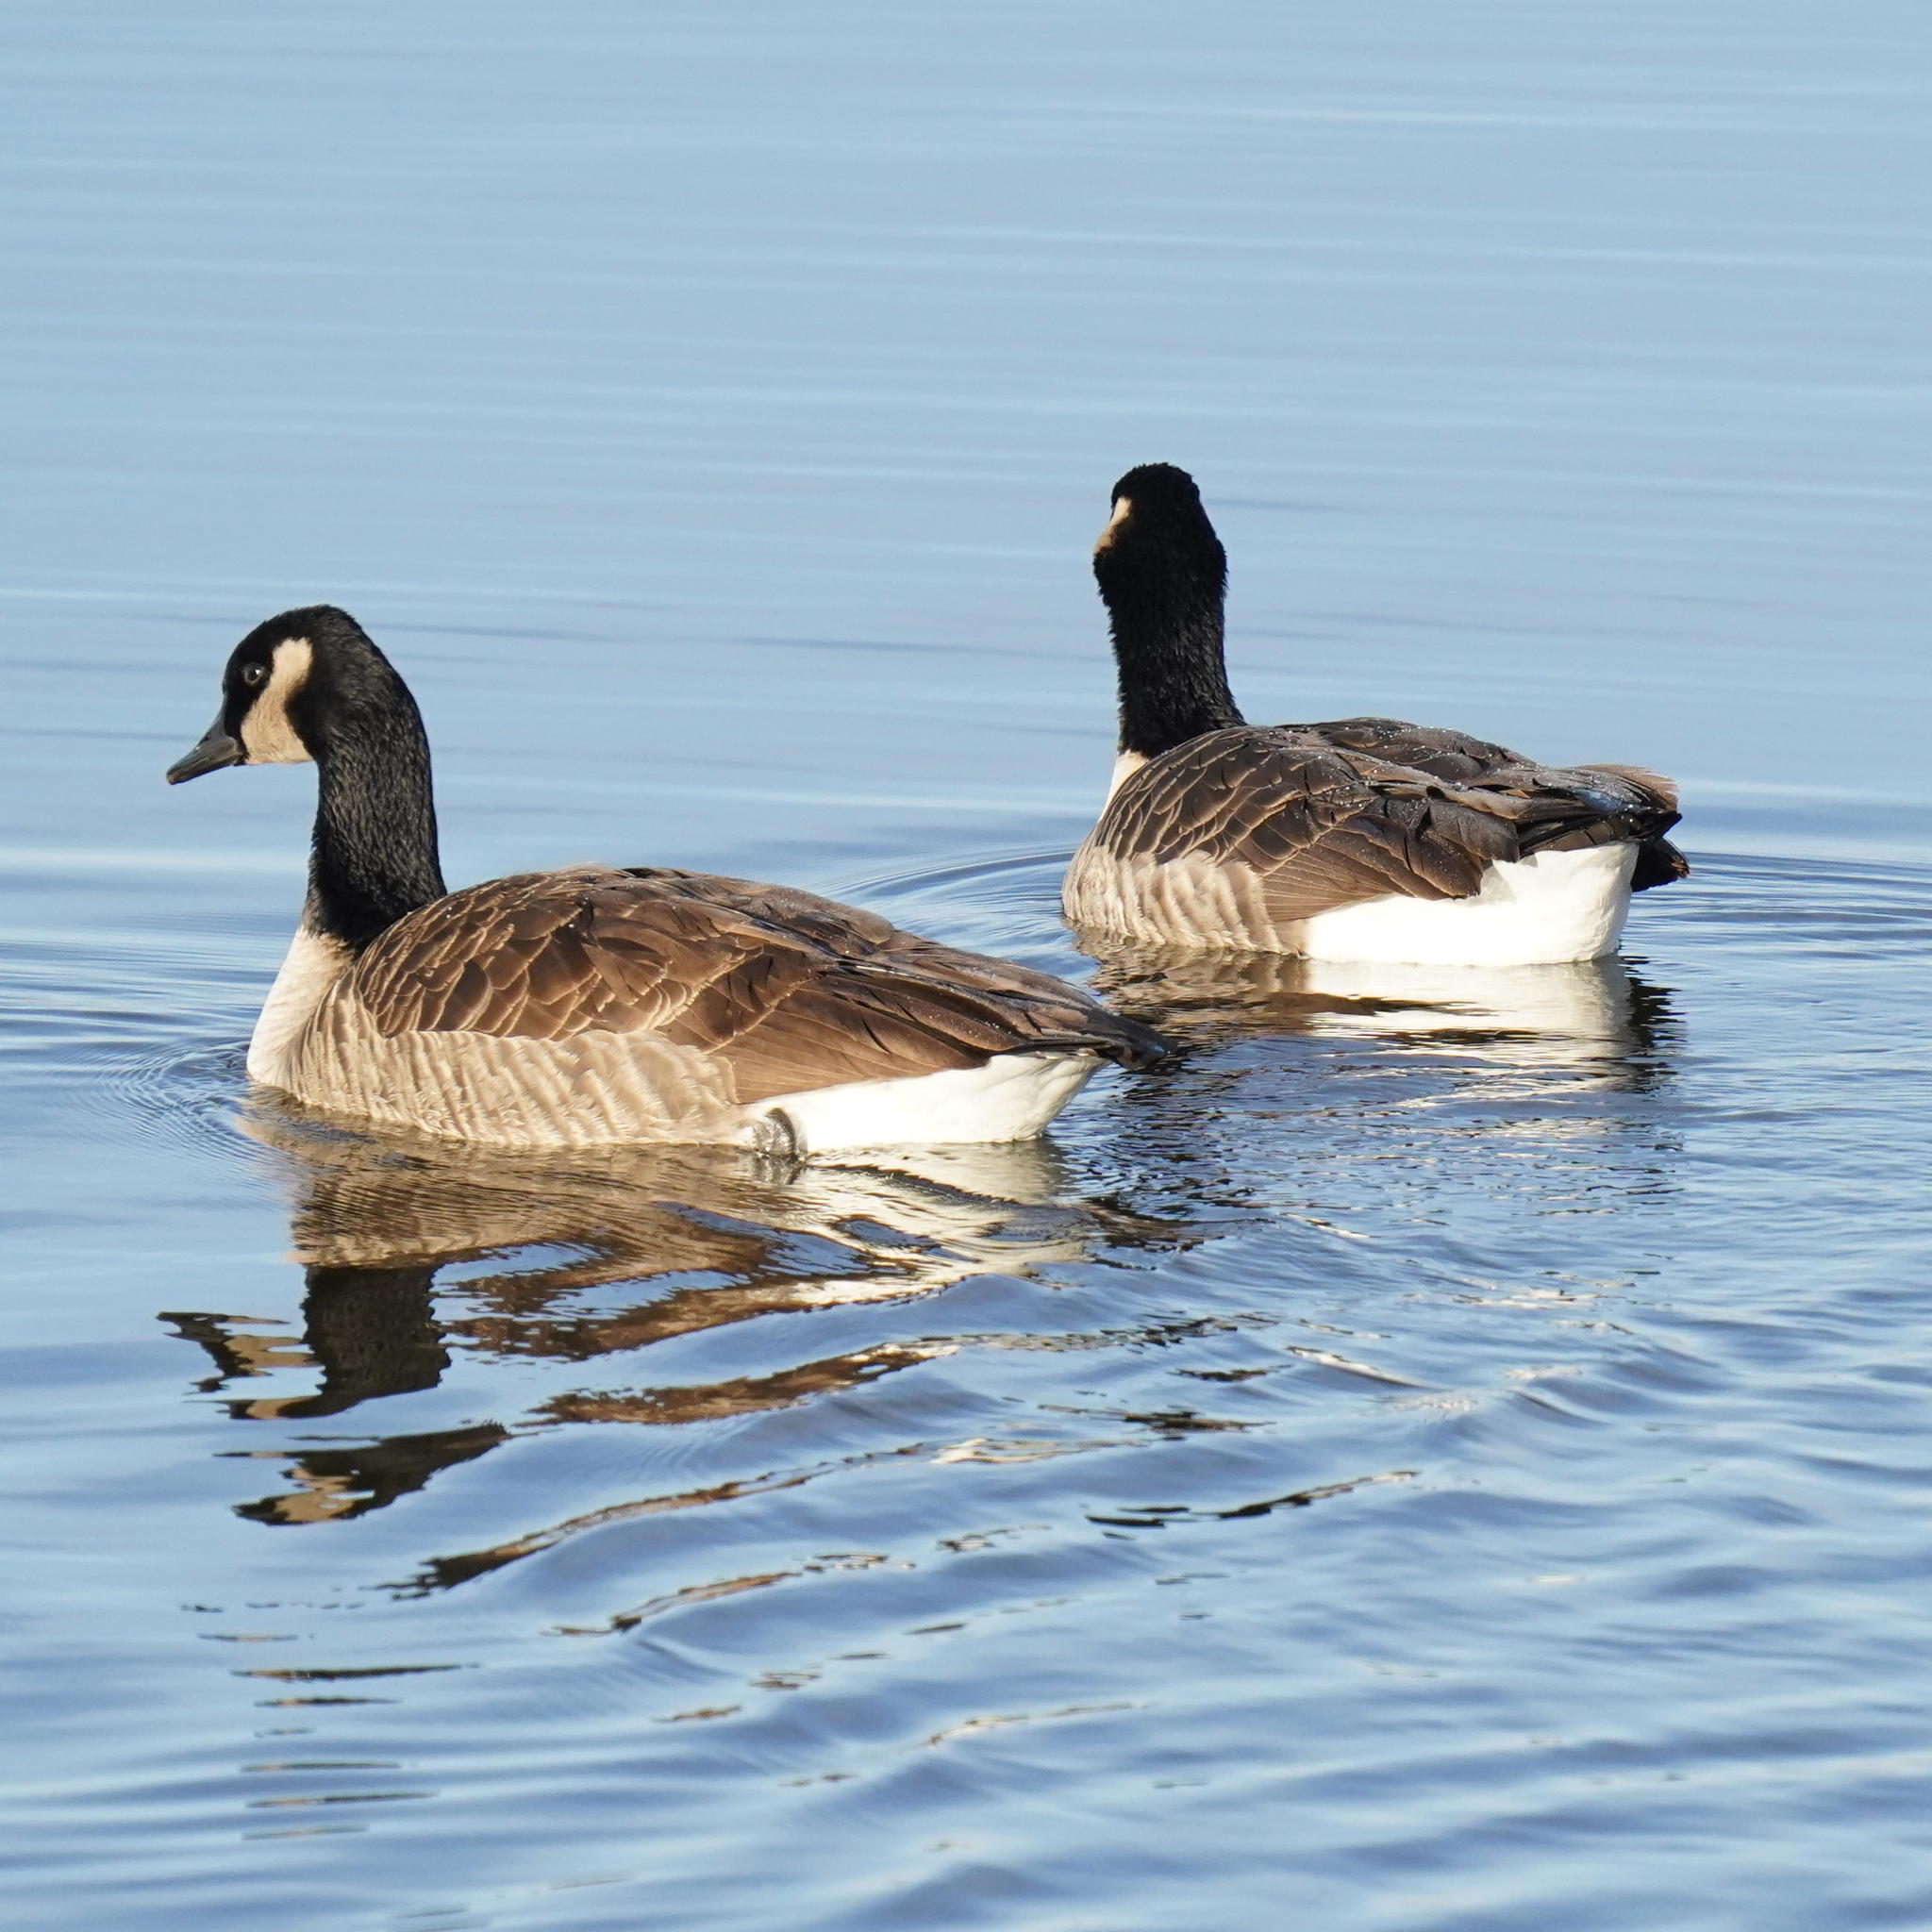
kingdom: Animalia
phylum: Chordata
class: Aves
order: Anseriformes
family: Anatidae
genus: Branta
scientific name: Branta canadensis
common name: Canada goose
